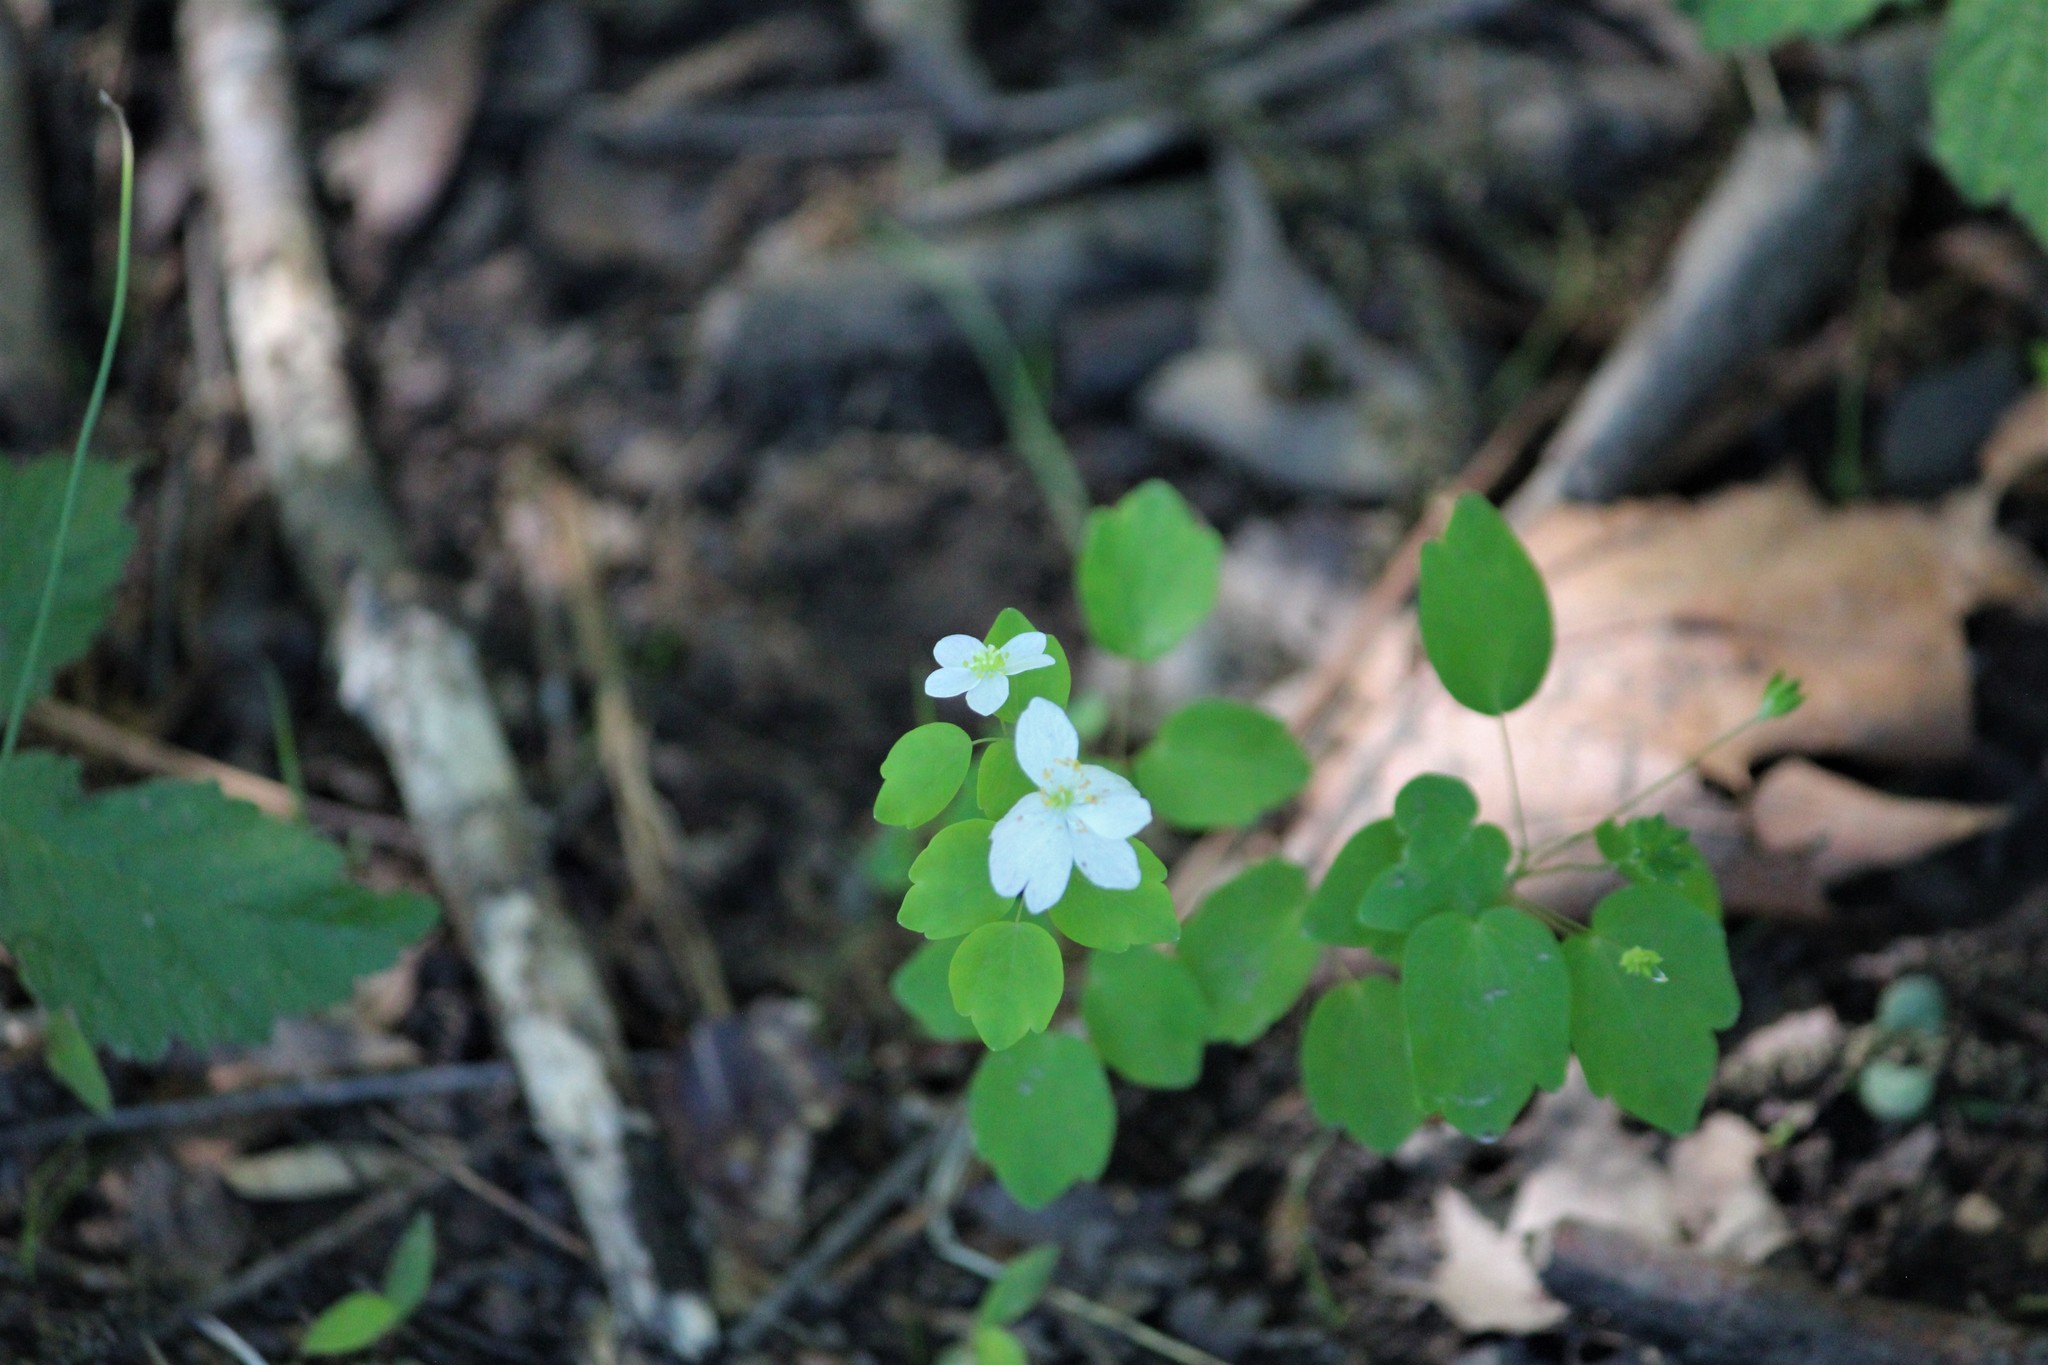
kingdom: Plantae
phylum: Tracheophyta
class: Magnoliopsida
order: Ranunculales
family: Ranunculaceae
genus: Thalictrum
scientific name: Thalictrum thalictroides
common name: Rue-anemone
